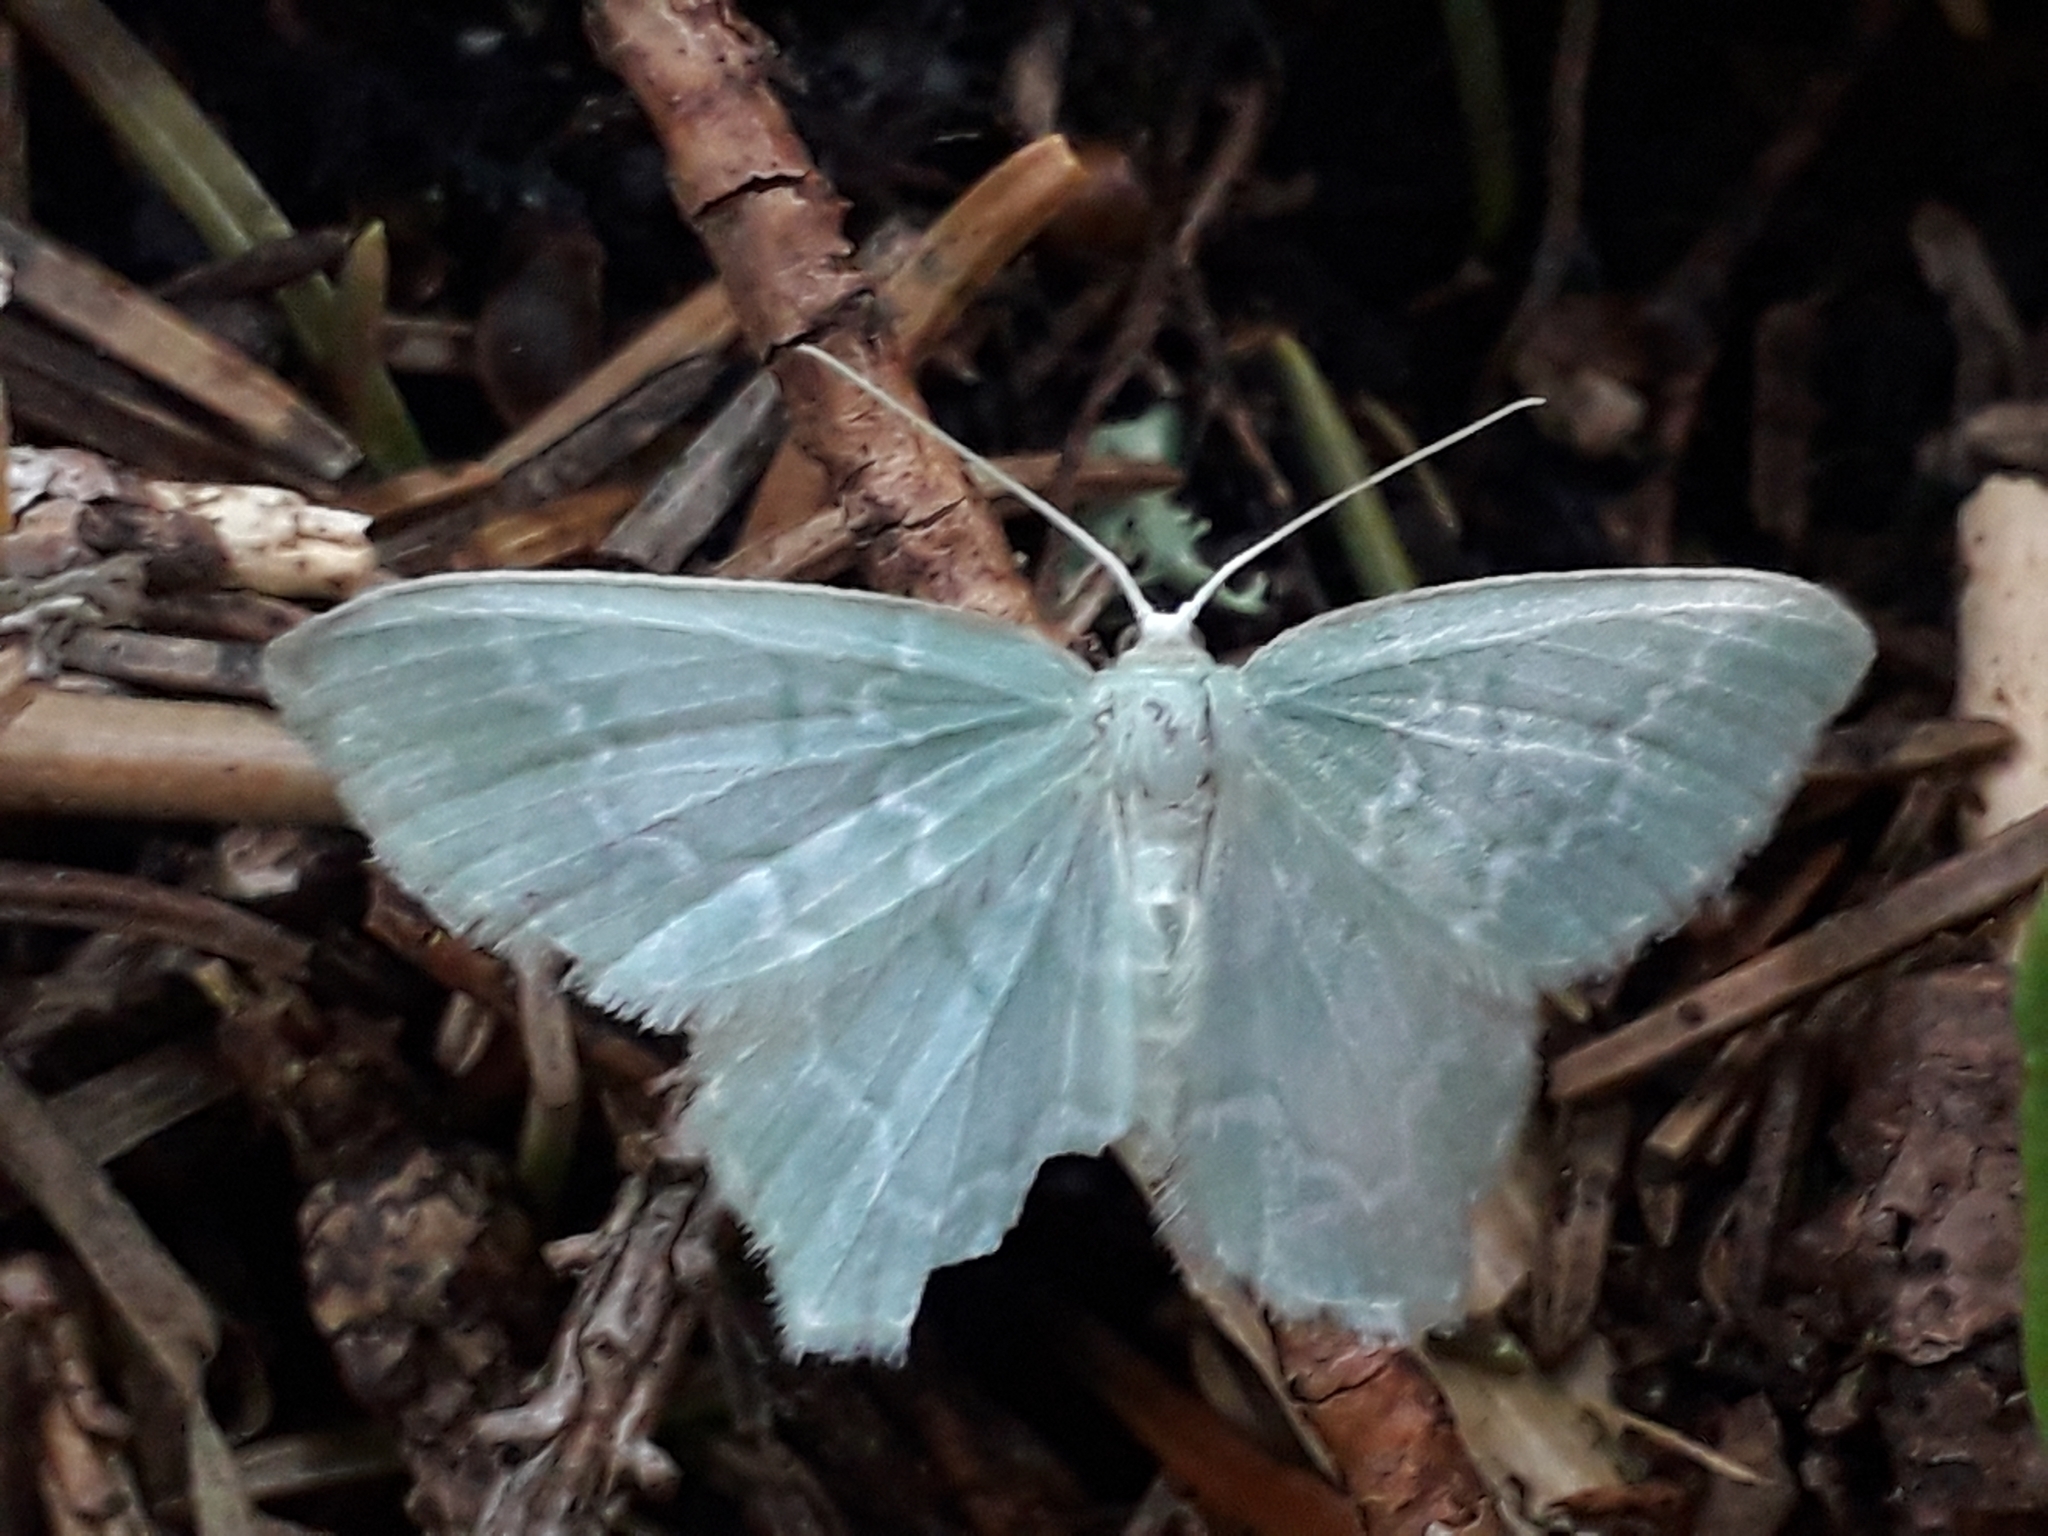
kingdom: Animalia
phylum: Arthropoda
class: Insecta
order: Lepidoptera
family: Geometridae
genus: Jodis
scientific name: Jodis putata
